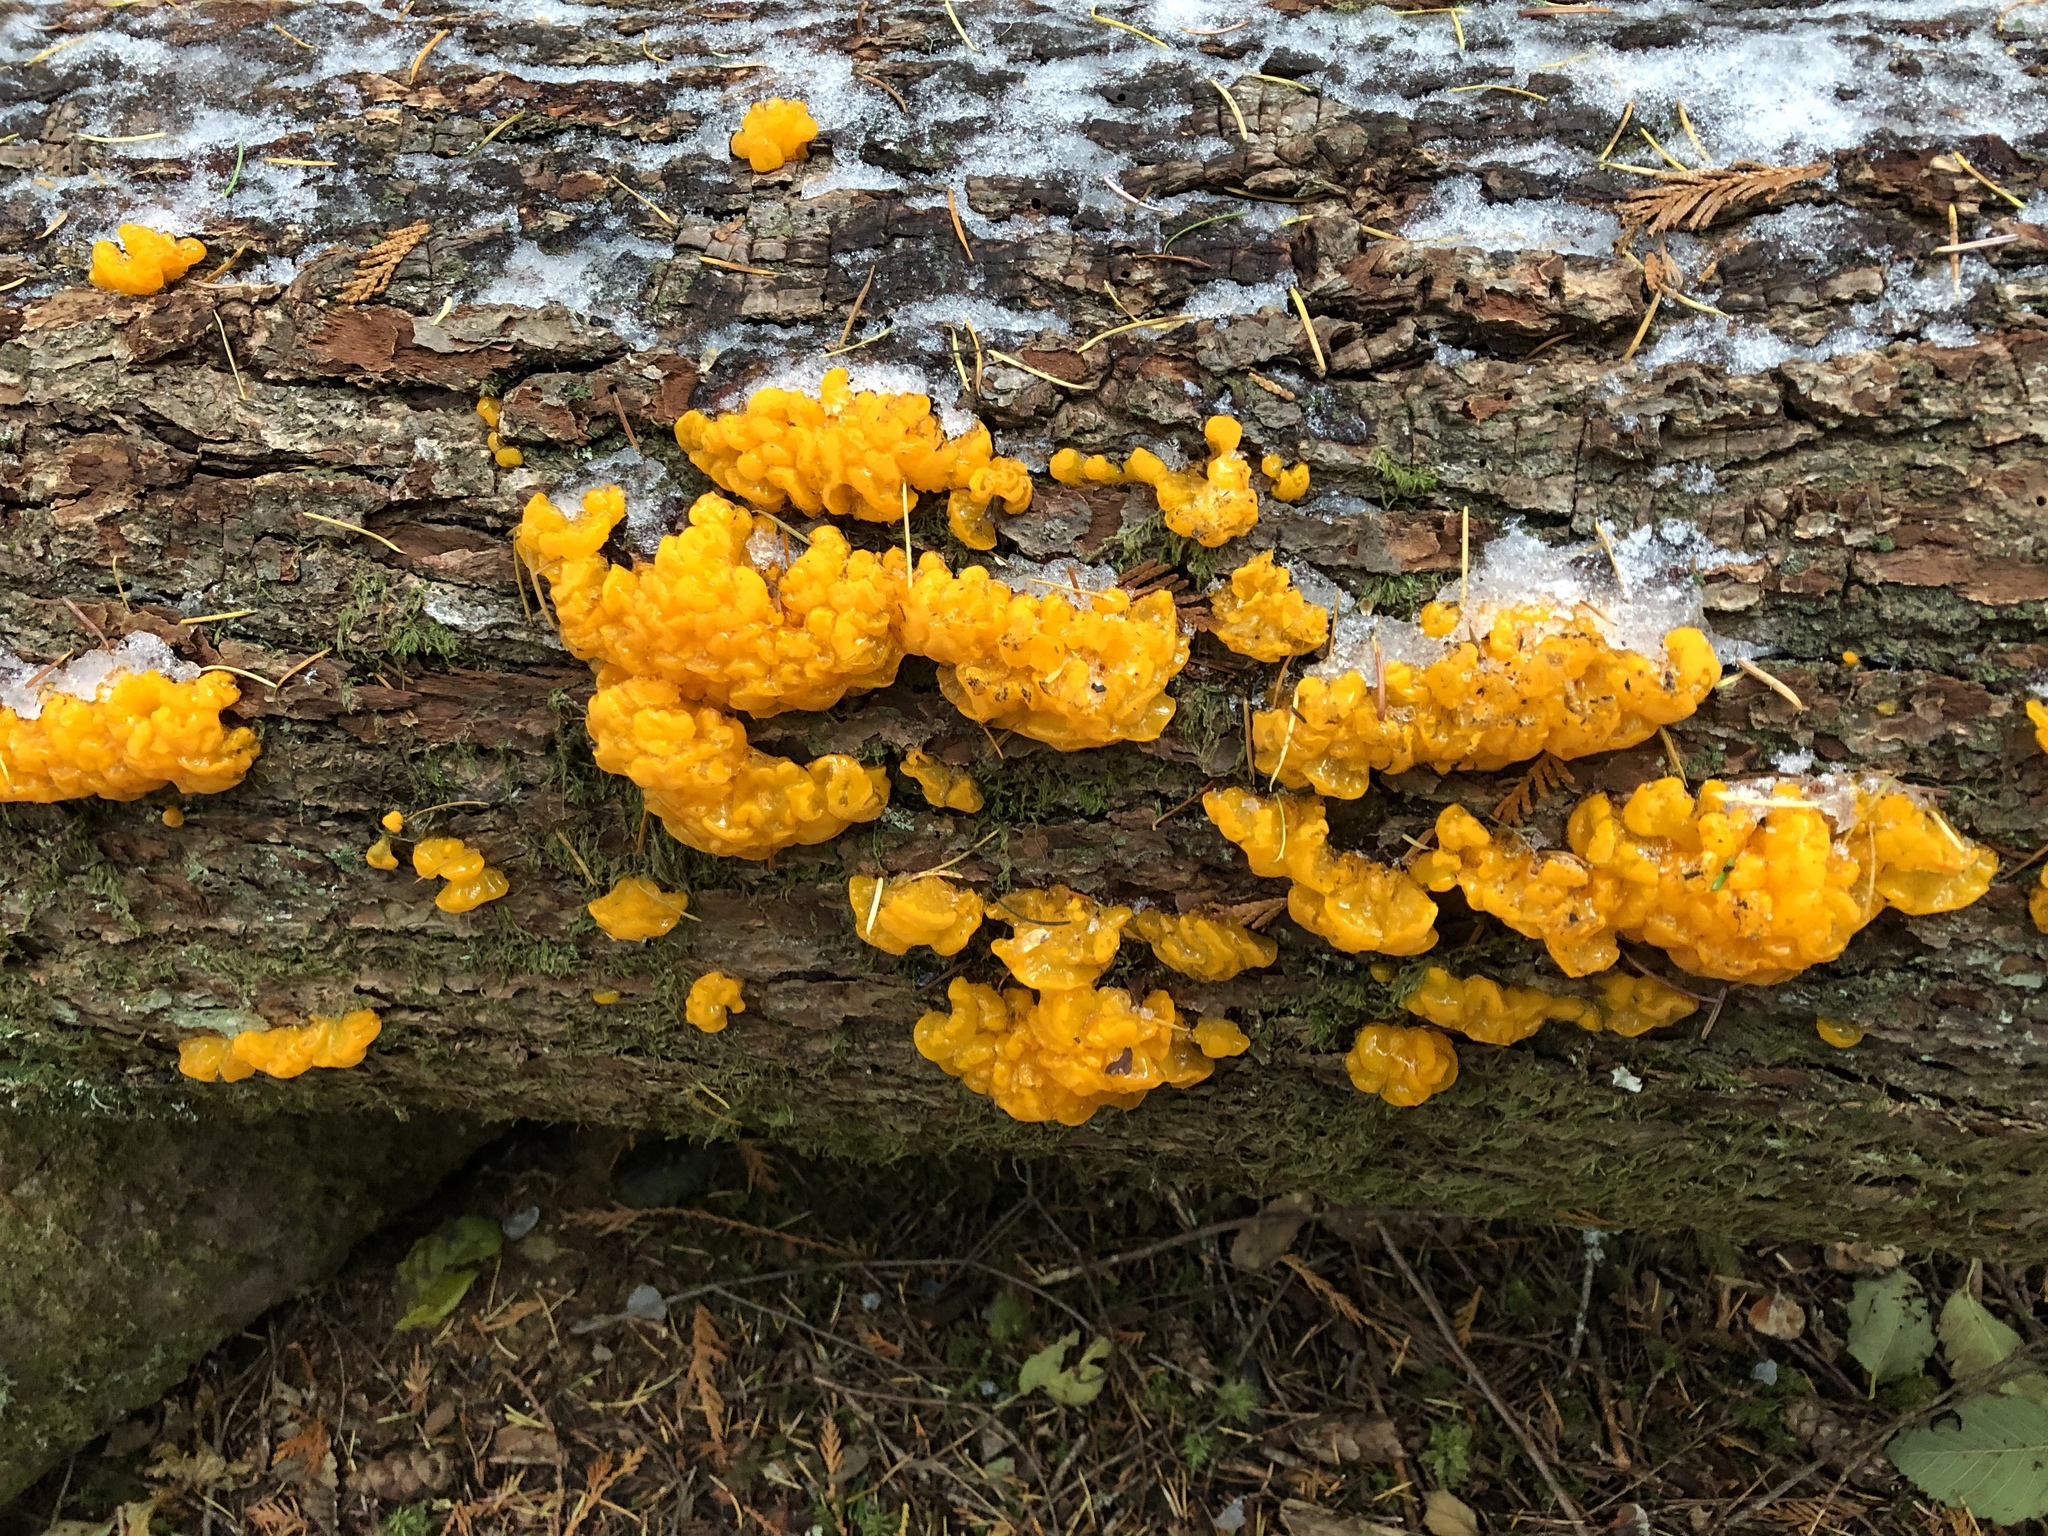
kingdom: Fungi
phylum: Basidiomycota
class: Dacrymycetes
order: Dacrymycetales
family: Dacrymycetaceae
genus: Dacrymyces
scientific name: Dacrymyces chrysospermus
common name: Orange jelly spot
